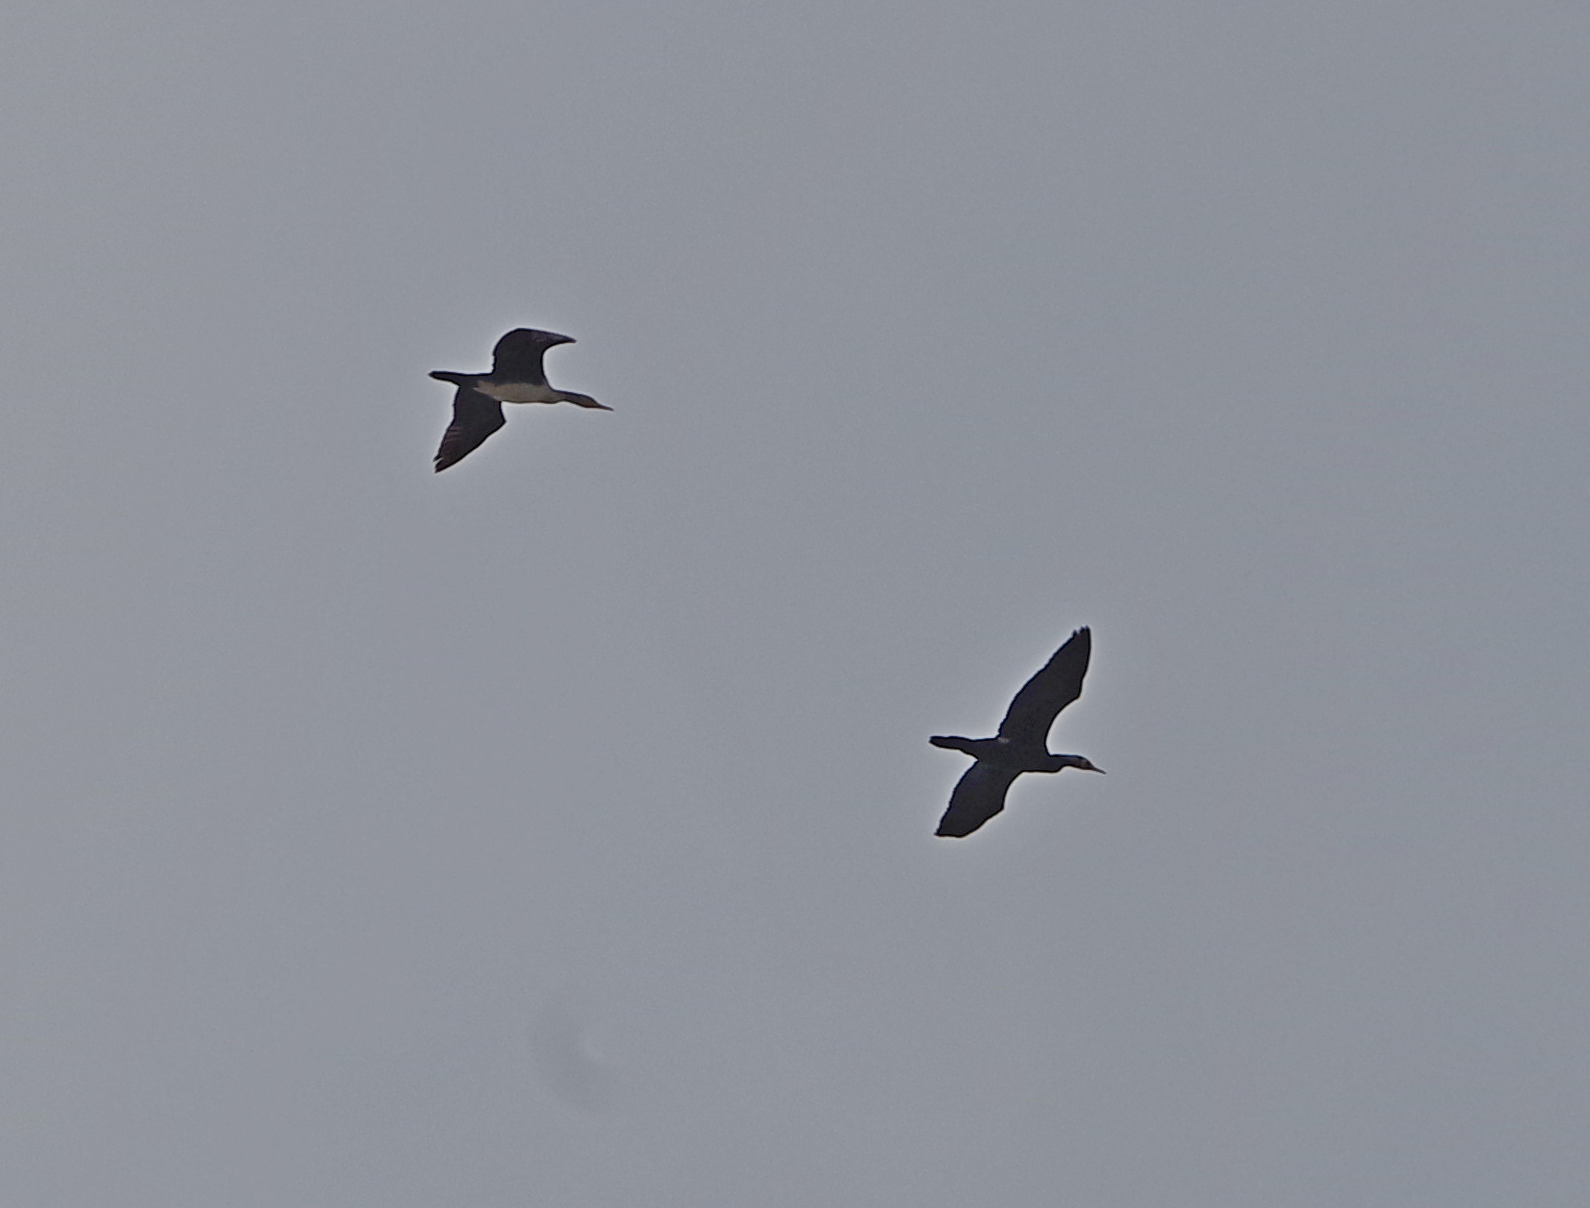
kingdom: Animalia
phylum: Chordata
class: Aves
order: Suliformes
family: Phalacrocoracidae
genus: Phalacrocorax
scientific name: Phalacrocorax carbo
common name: Great cormorant
